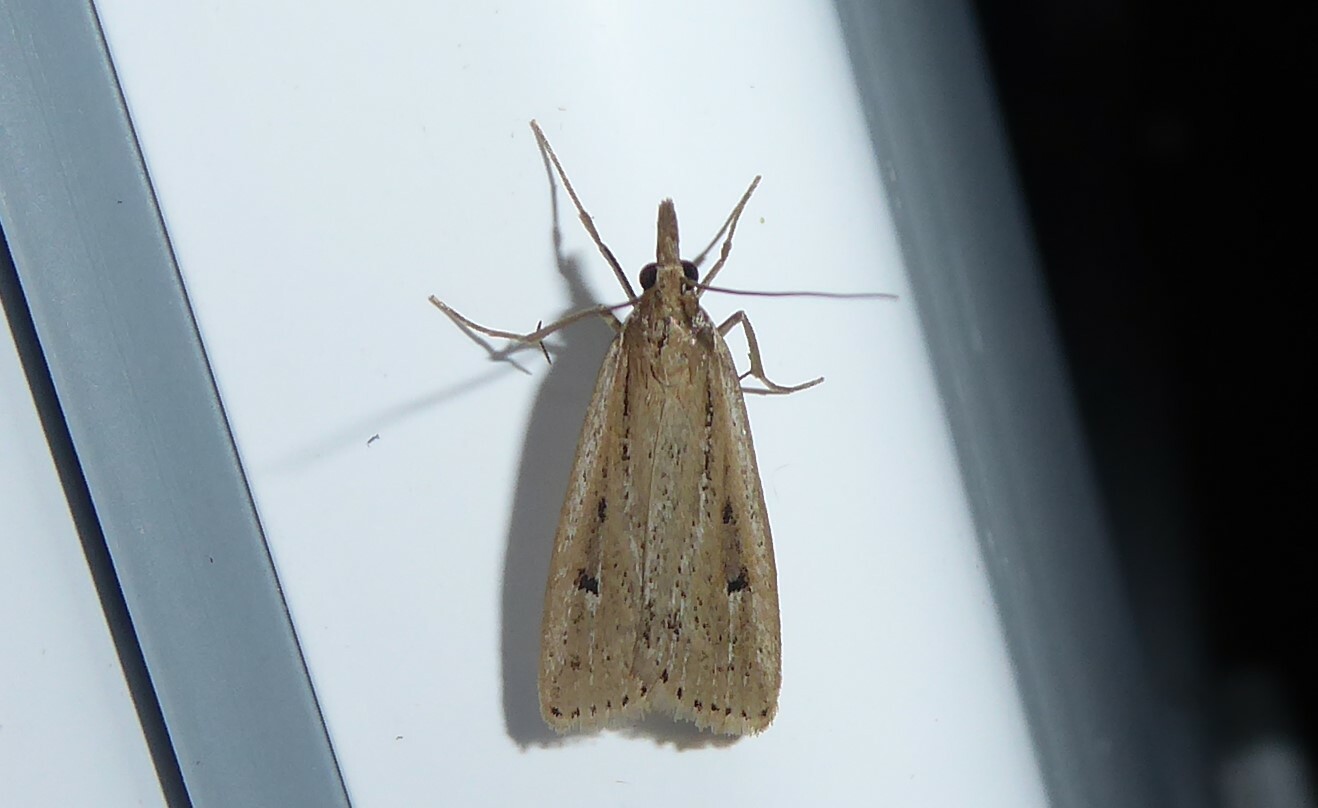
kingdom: Animalia
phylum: Arthropoda
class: Insecta
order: Lepidoptera
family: Crambidae
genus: Eudonia
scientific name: Eudonia sabulosella
